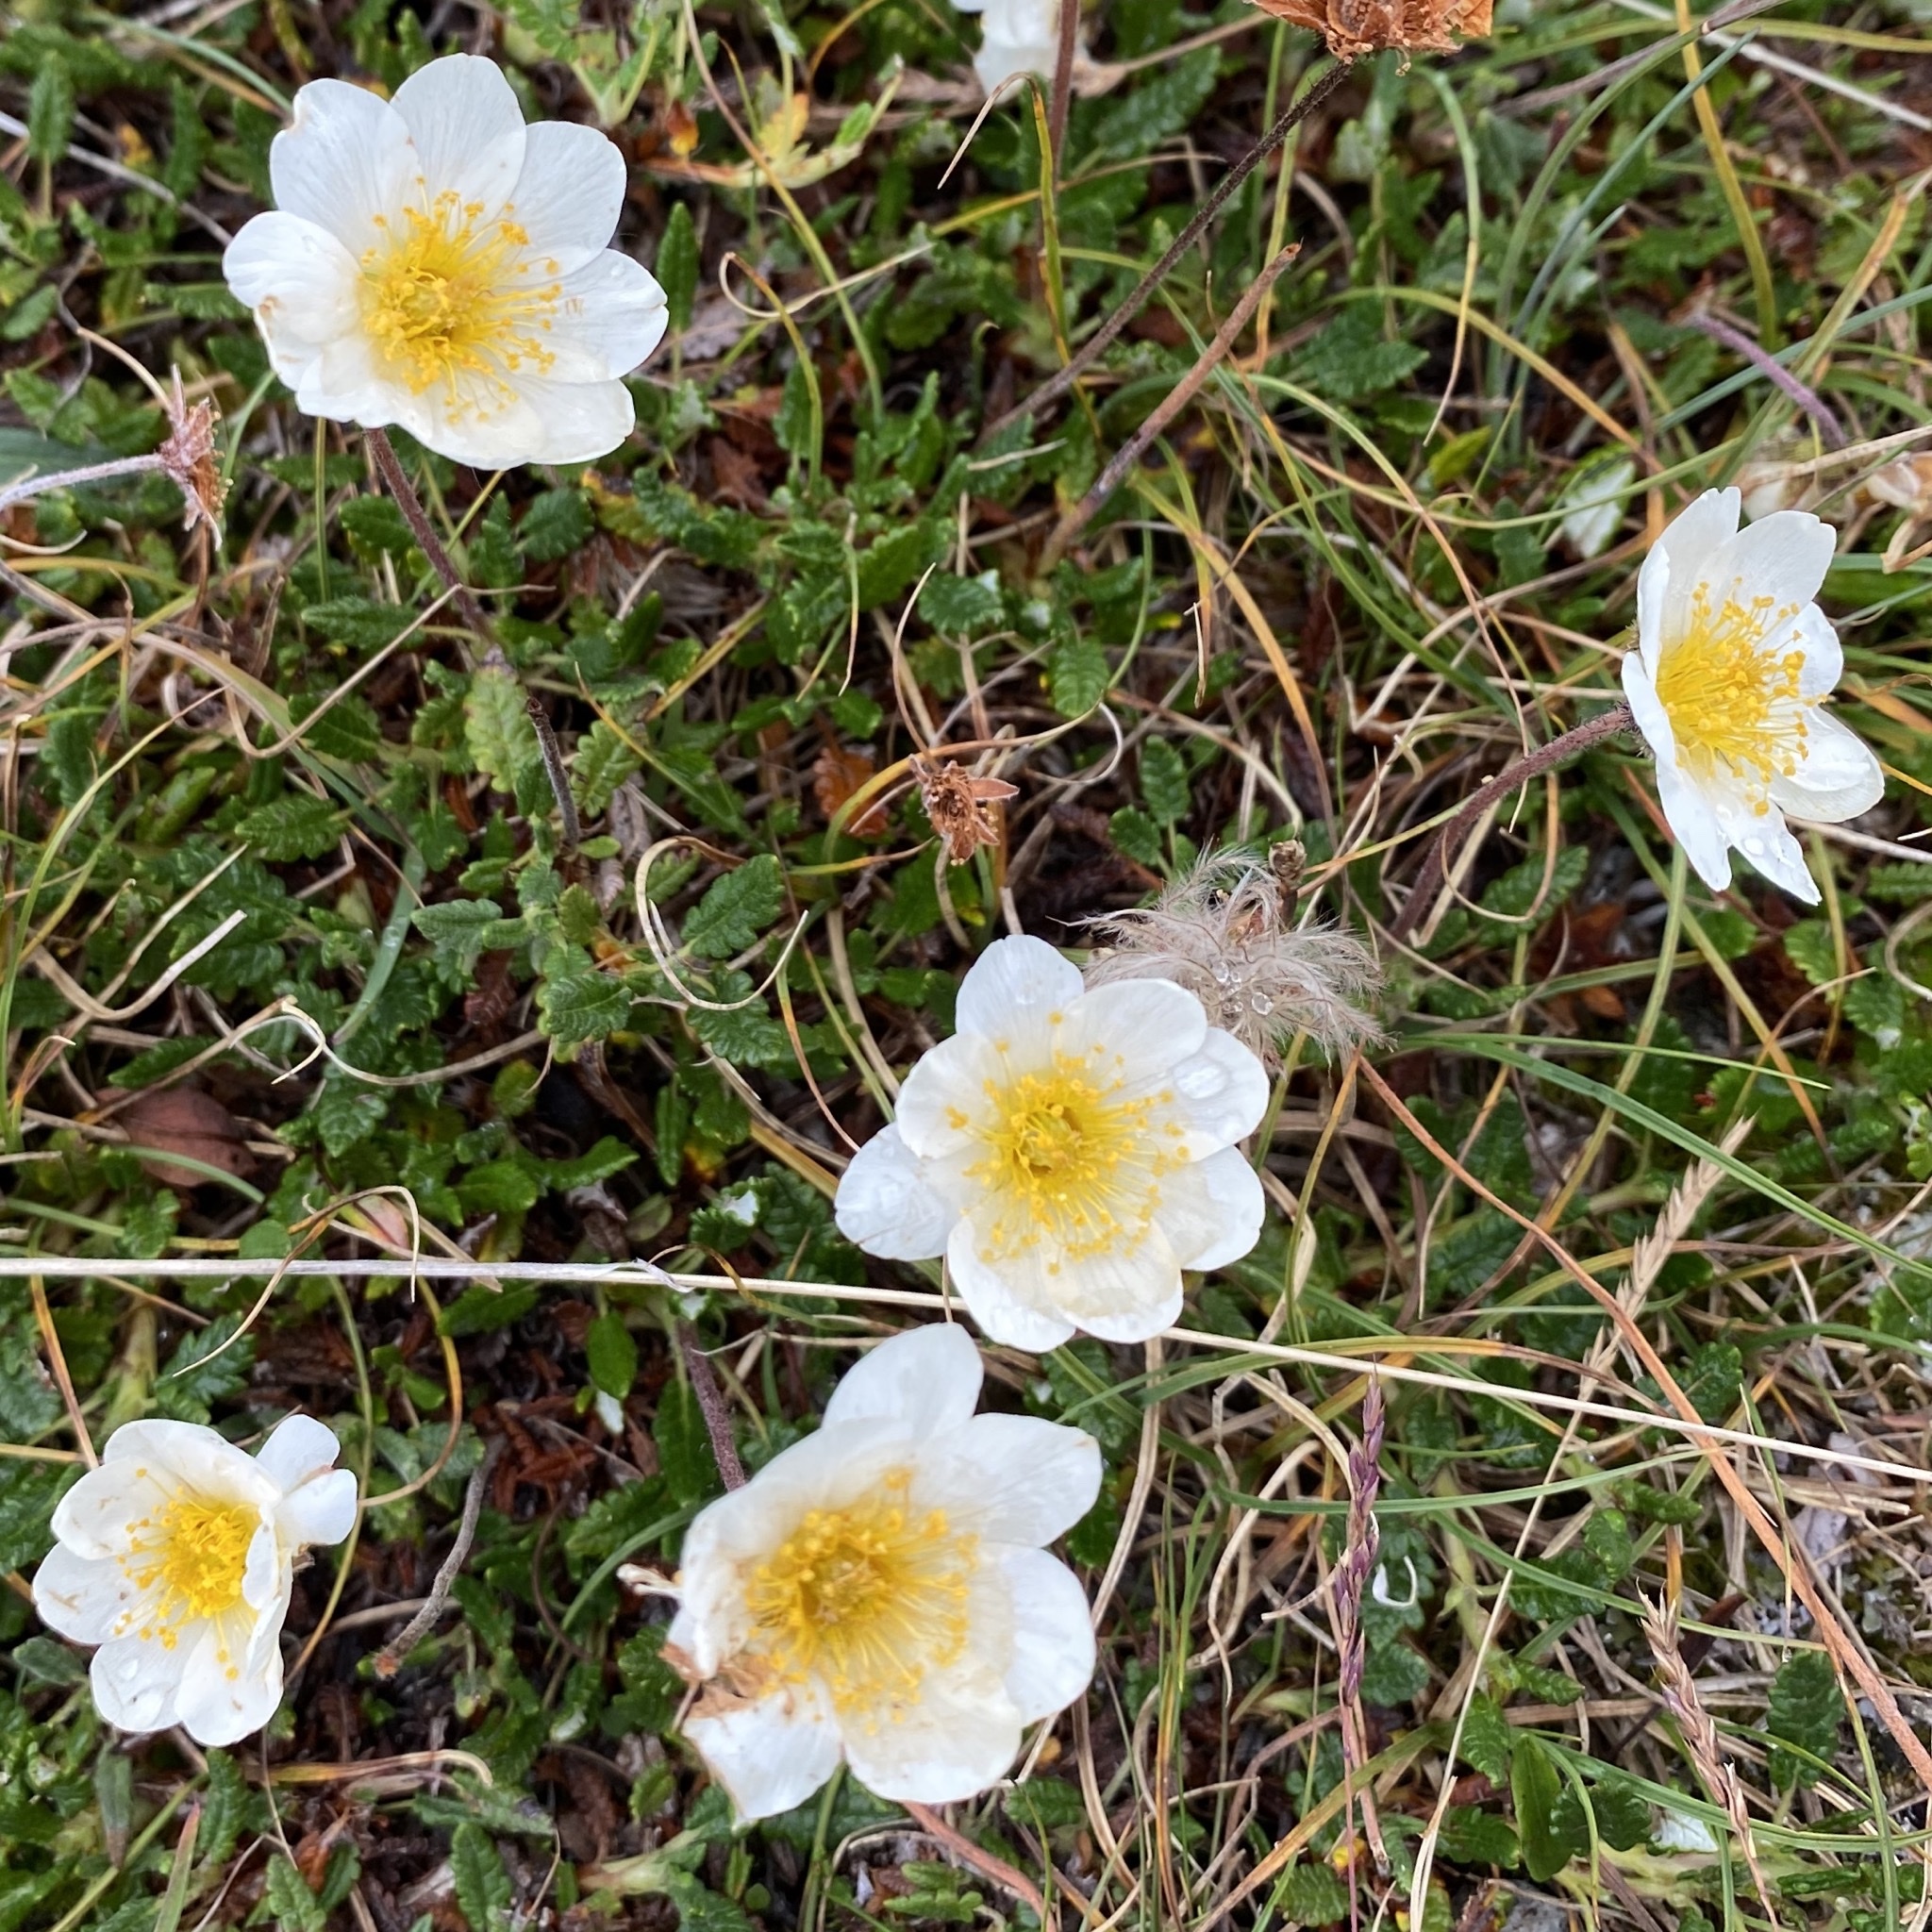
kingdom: Plantae
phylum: Tracheophyta
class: Magnoliopsida
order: Rosales
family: Rosaceae
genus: Dryas
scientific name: Dryas octopetala
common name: Eight-petal mountain-avens
